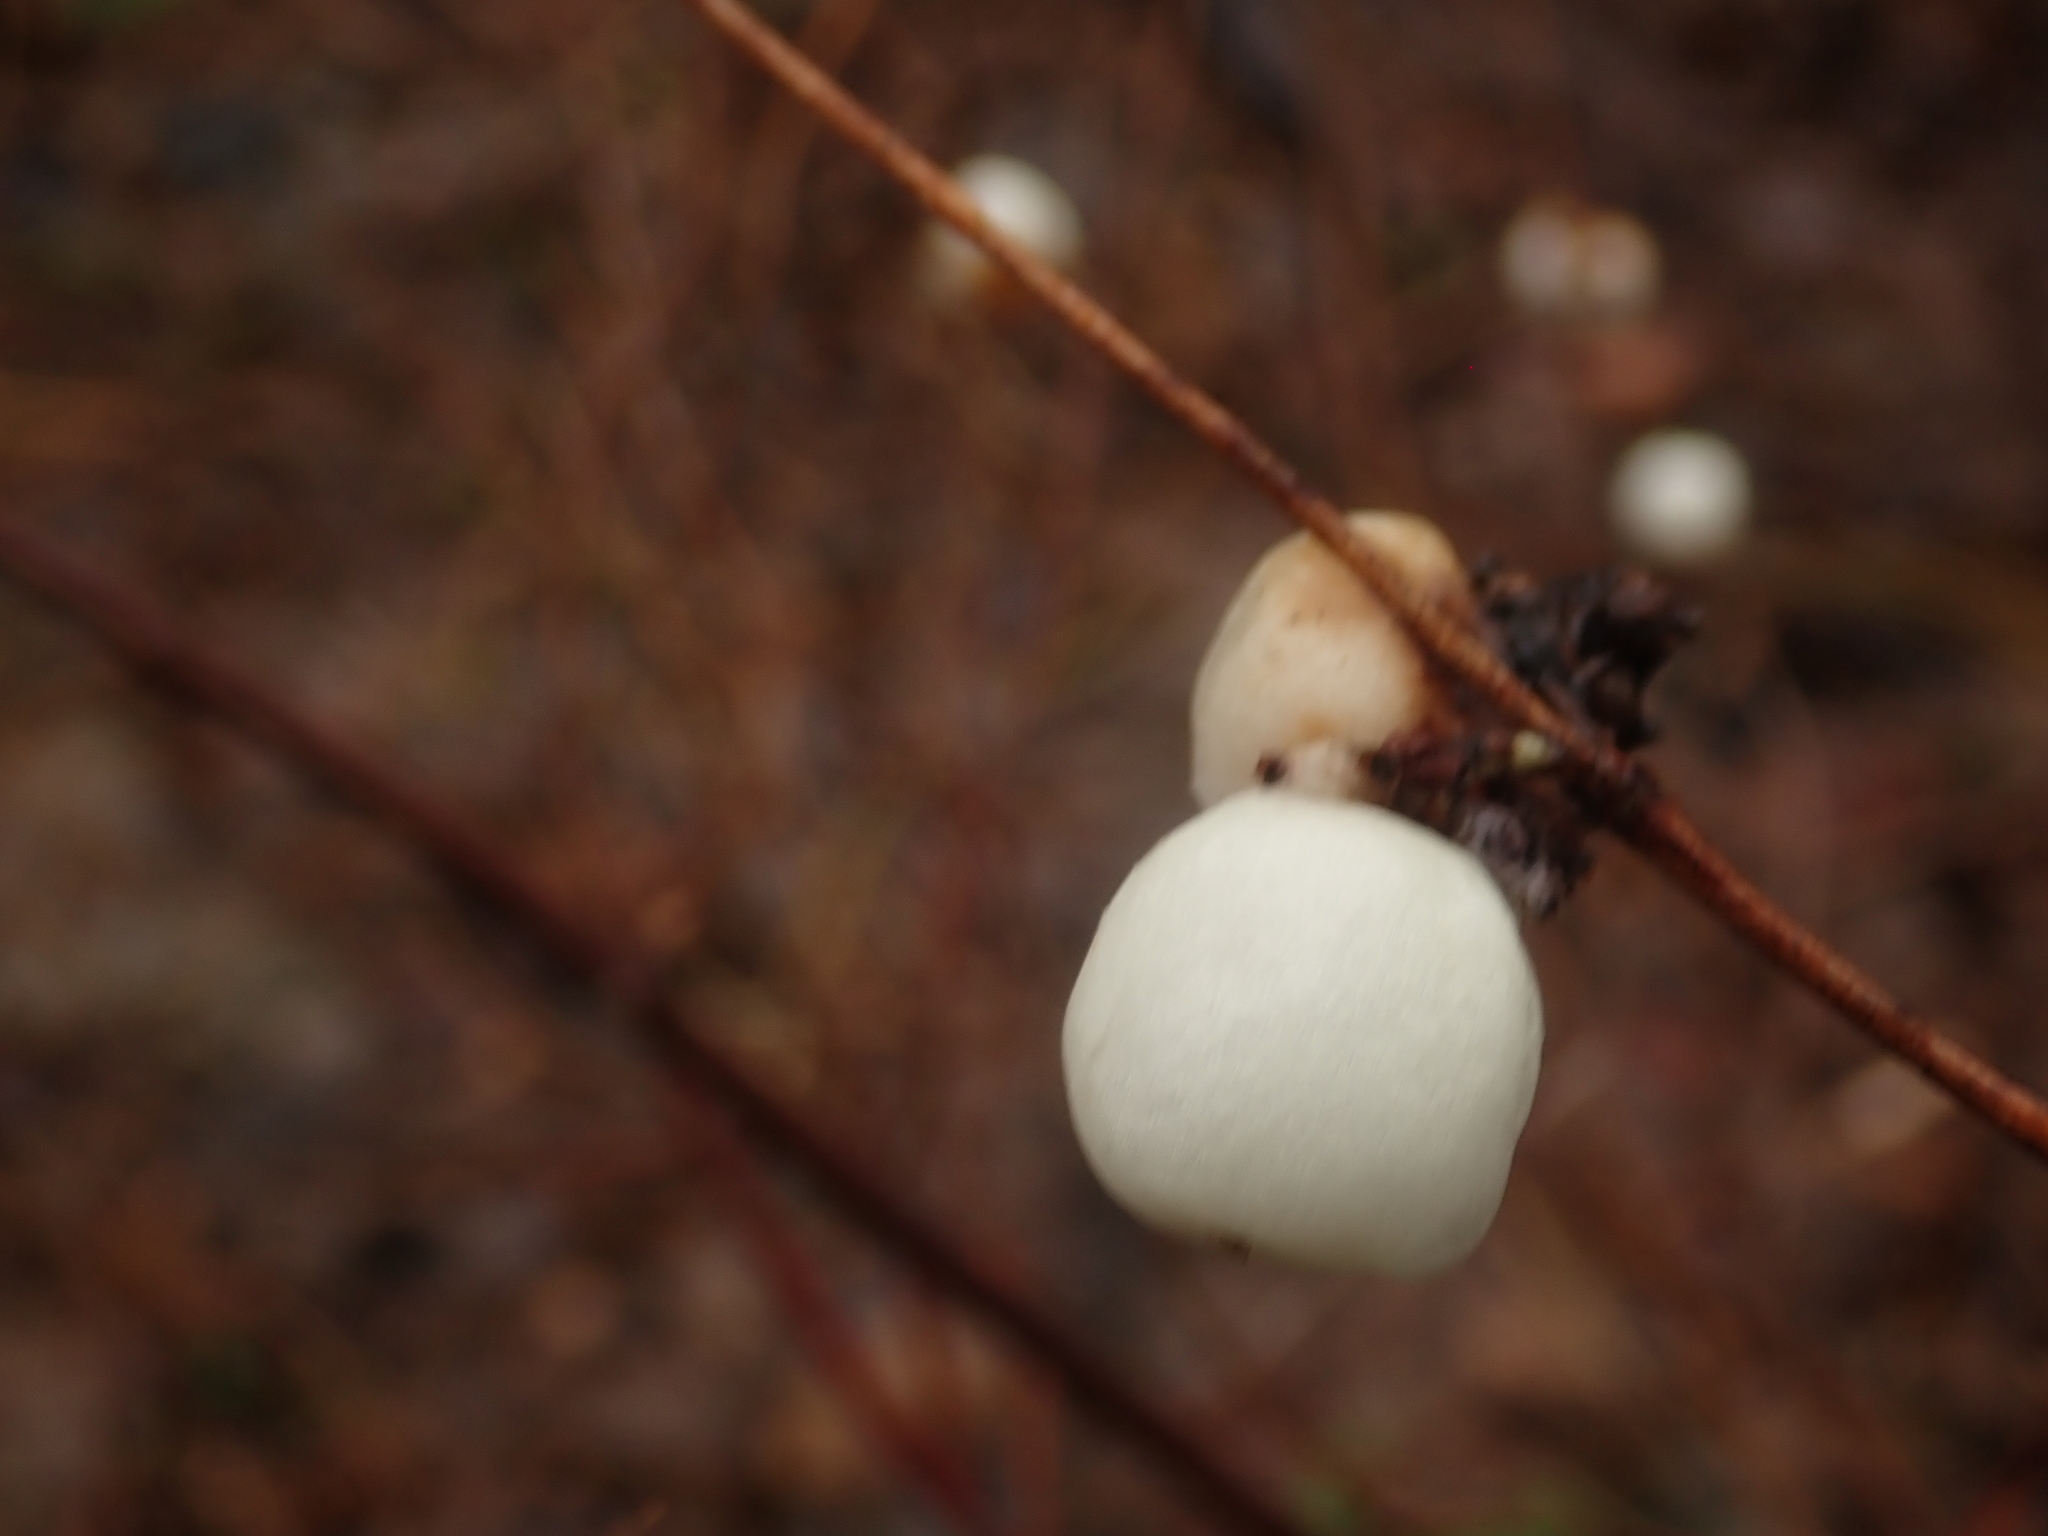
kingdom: Plantae
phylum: Tracheophyta
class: Magnoliopsida
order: Dipsacales
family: Caprifoliaceae
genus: Symphoricarpos
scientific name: Symphoricarpos albus
